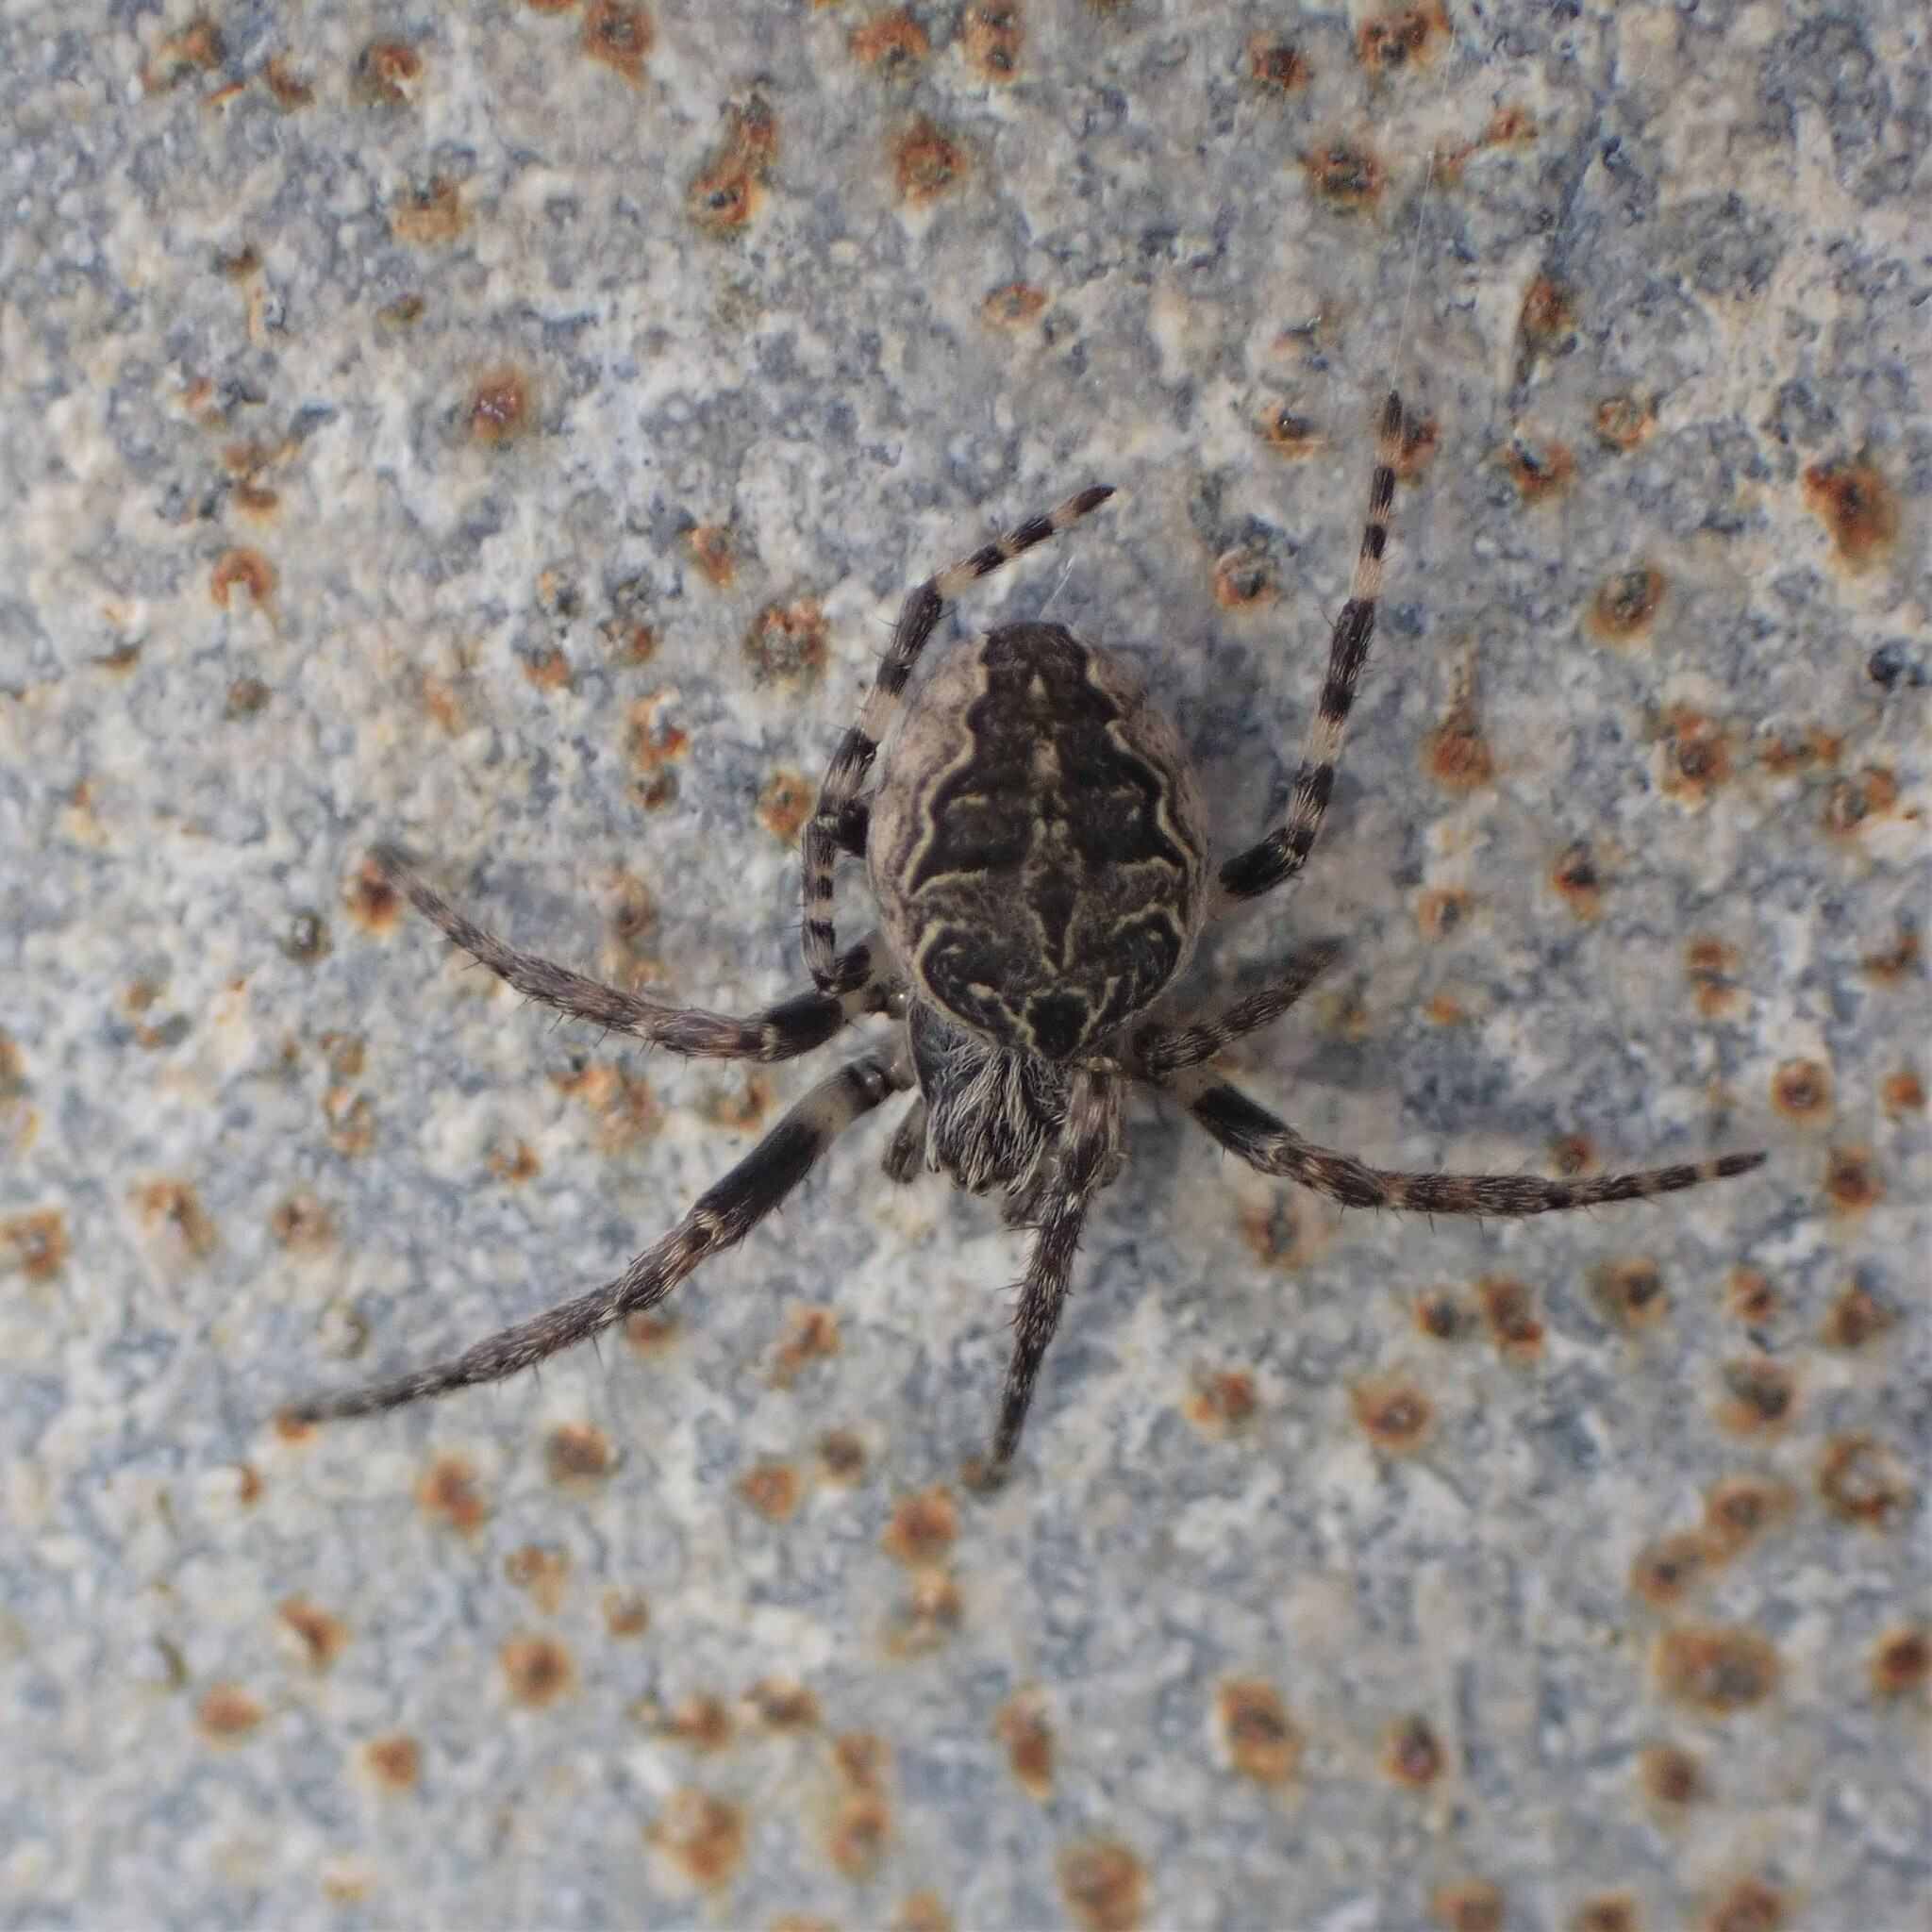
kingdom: Animalia
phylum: Arthropoda
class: Arachnida
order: Araneae
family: Araneidae
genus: Larinioides
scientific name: Larinioides sclopetarius
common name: Bridge orbweaver
